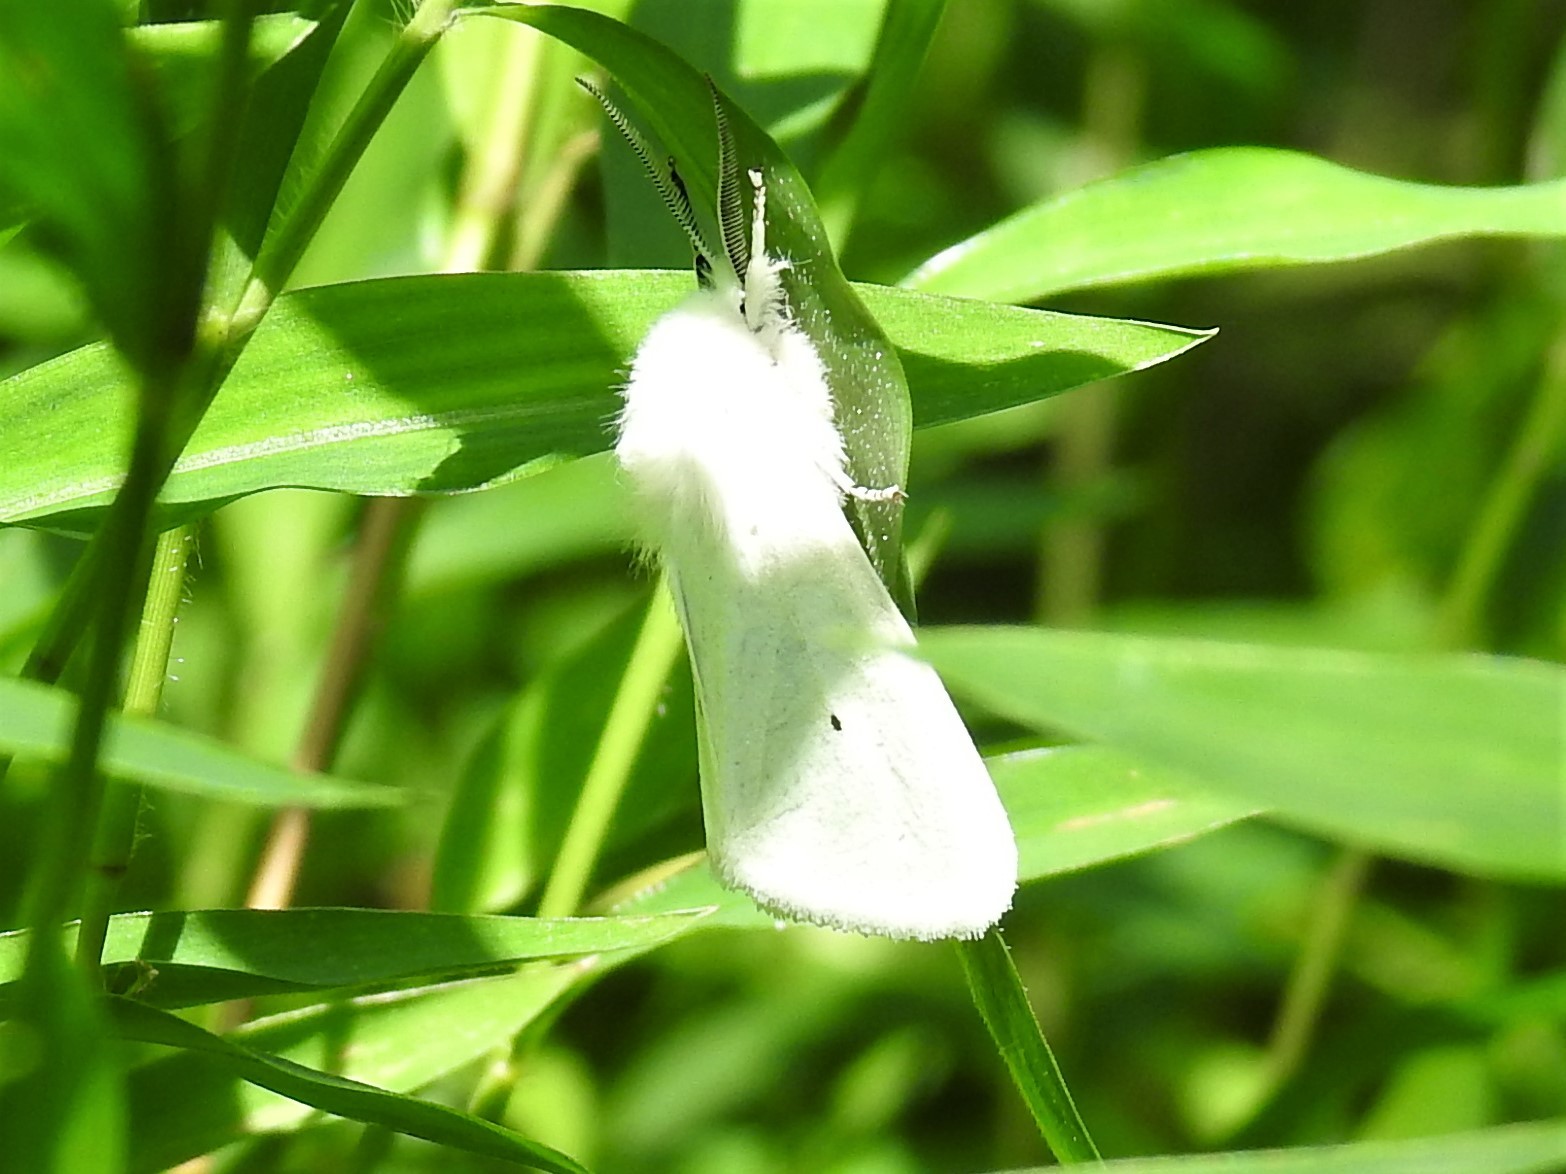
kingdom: Animalia
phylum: Arthropoda
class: Insecta
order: Lepidoptera
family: Erebidae
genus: Spilosoma
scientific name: Spilosoma virginica
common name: Virginia tiger moth
